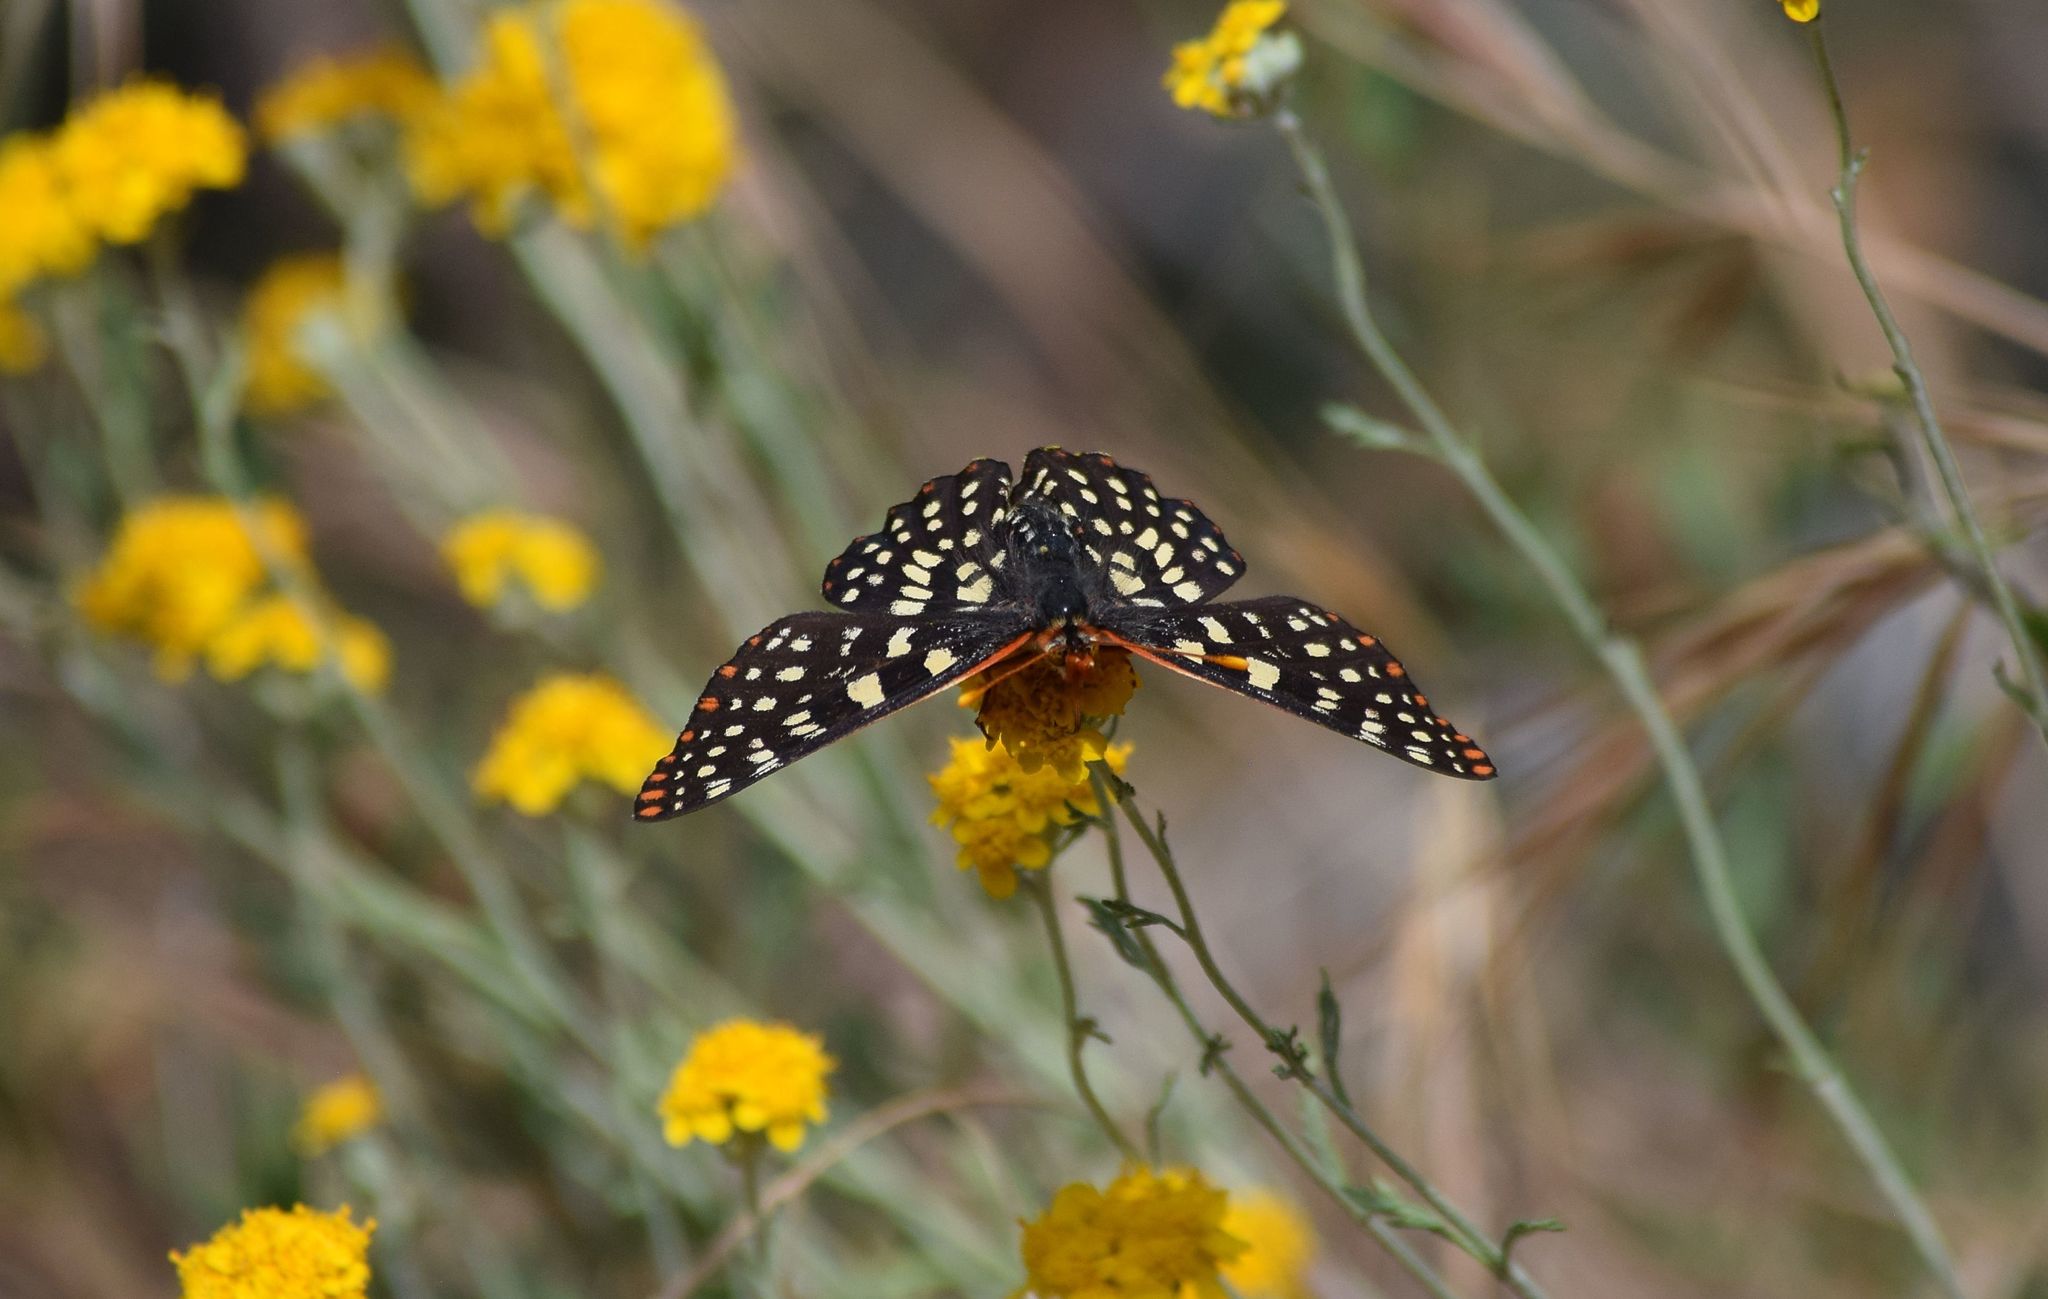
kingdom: Animalia
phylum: Arthropoda
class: Insecta
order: Lepidoptera
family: Nymphalidae
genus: Occidryas
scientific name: Occidryas chalcedona
